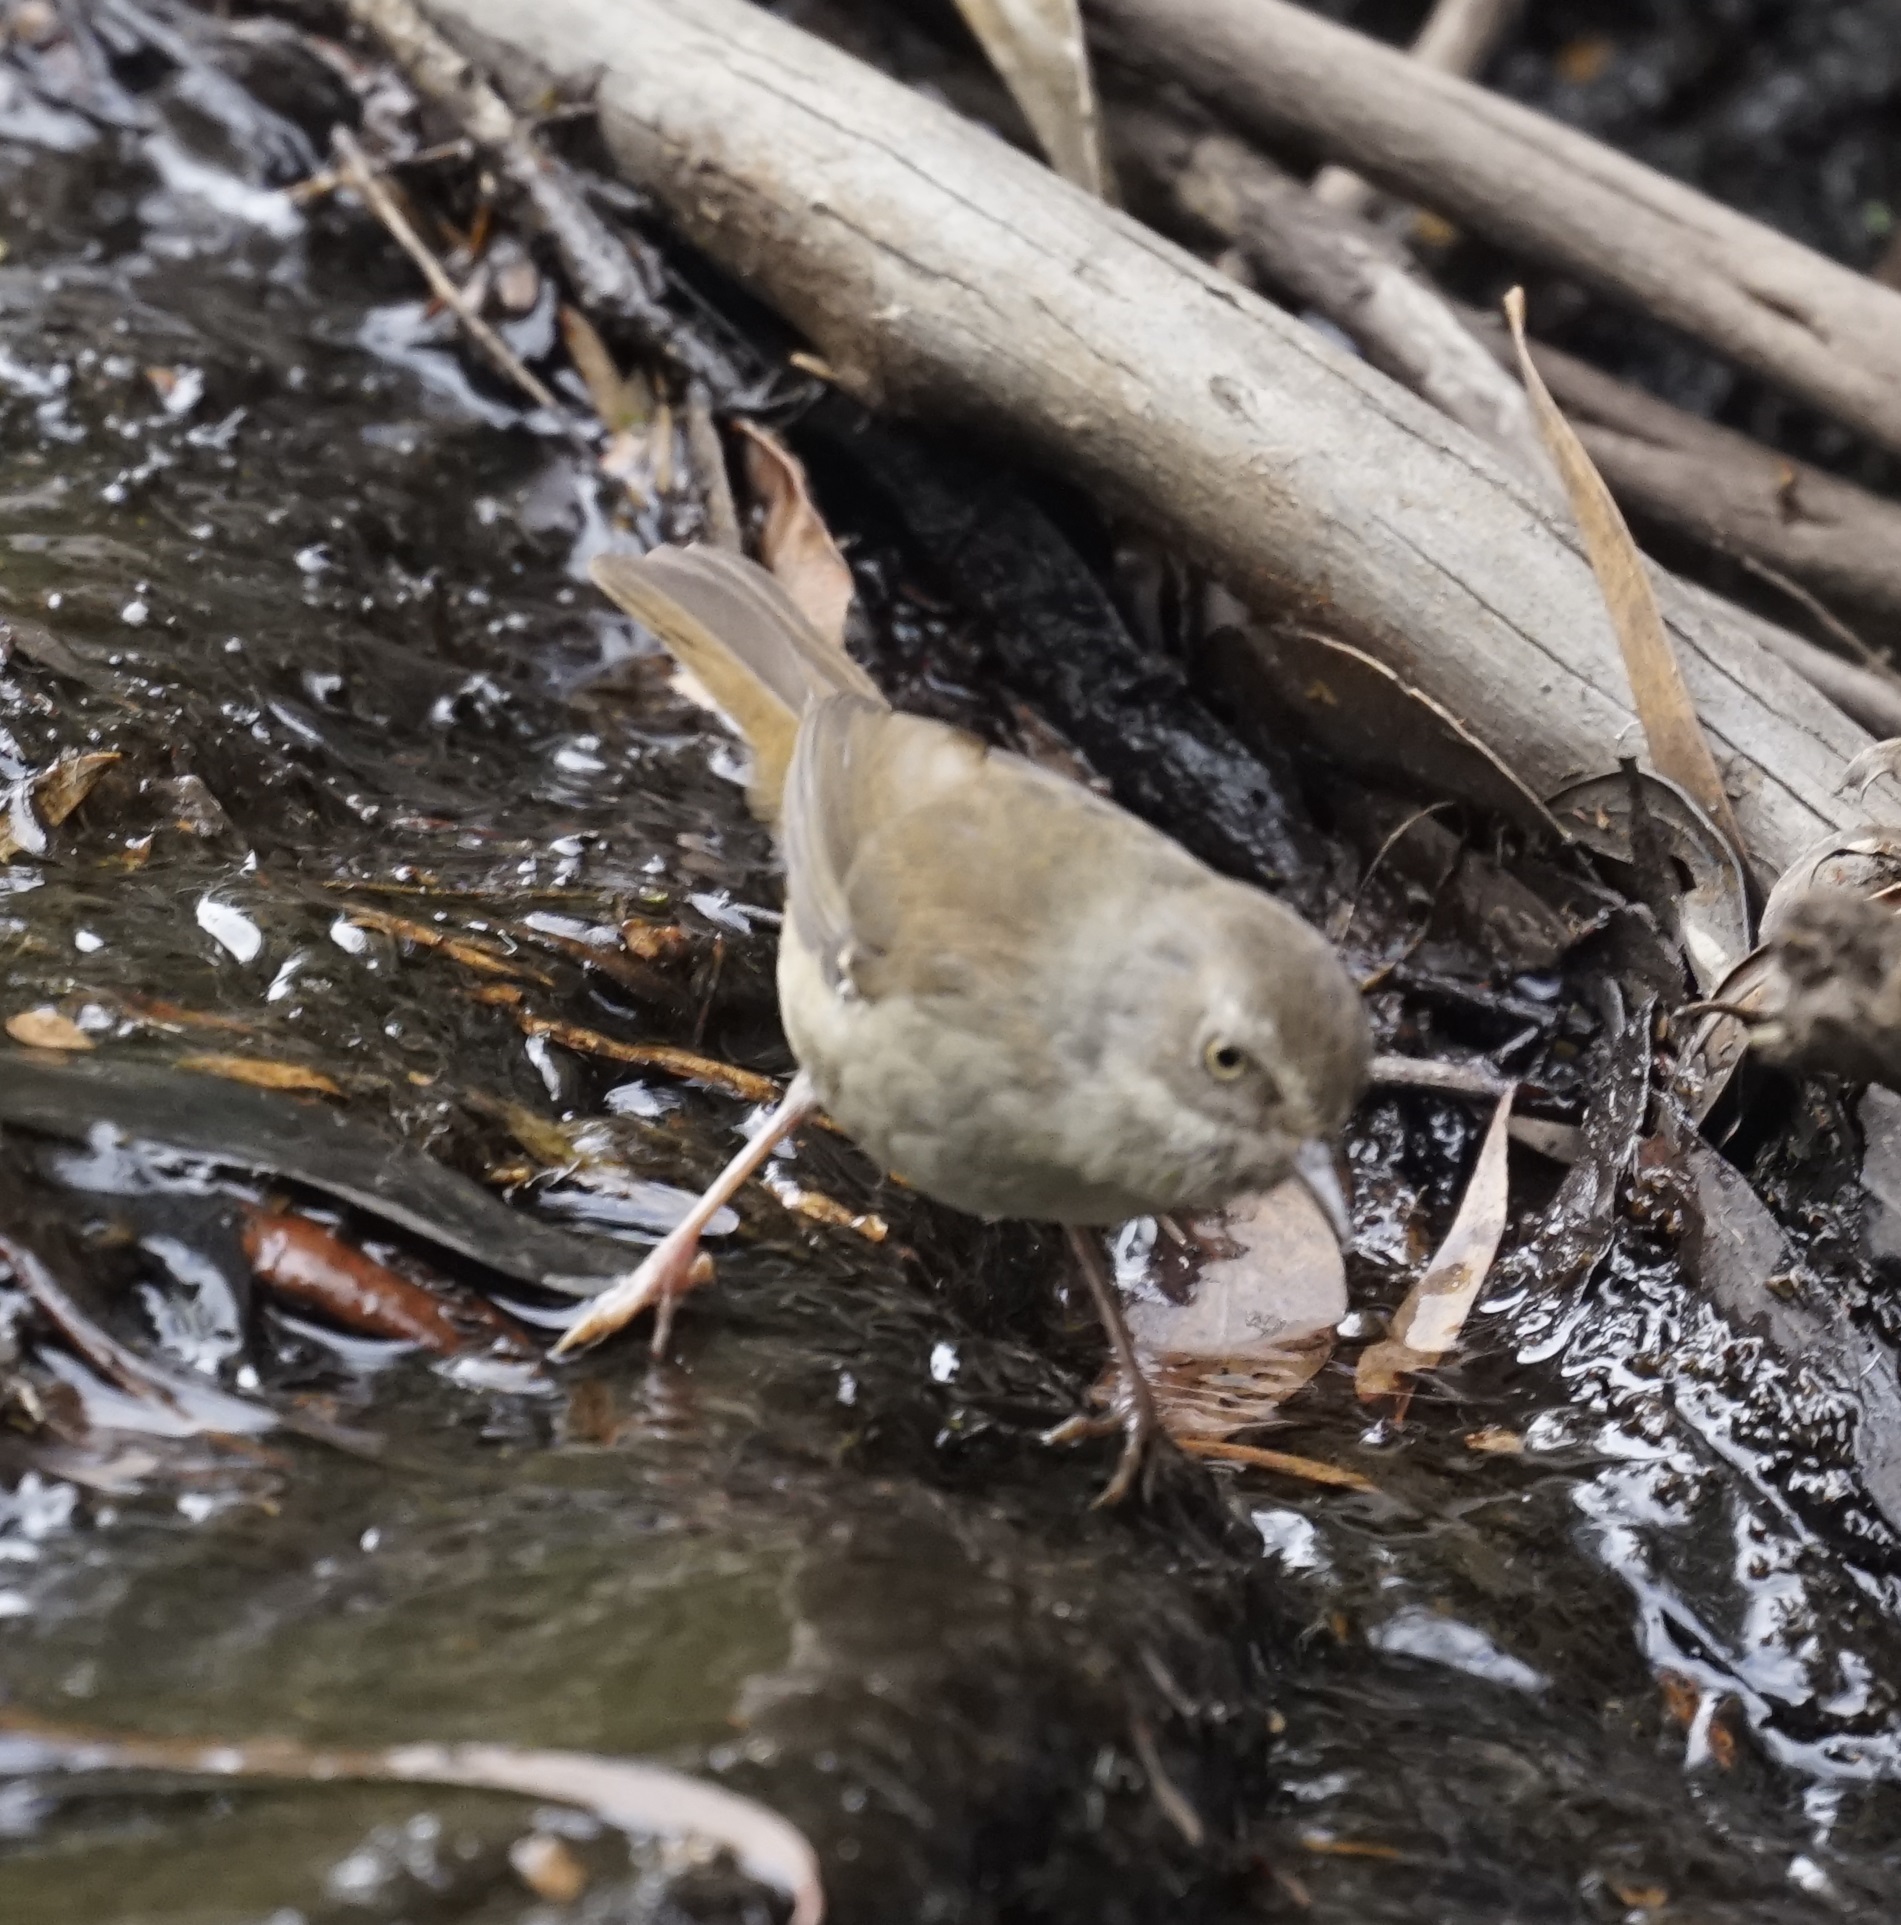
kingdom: Animalia
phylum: Chordata
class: Aves
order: Passeriformes
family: Acanthizidae
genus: Sericornis
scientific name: Sericornis frontalis
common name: White-browed scrubwren
